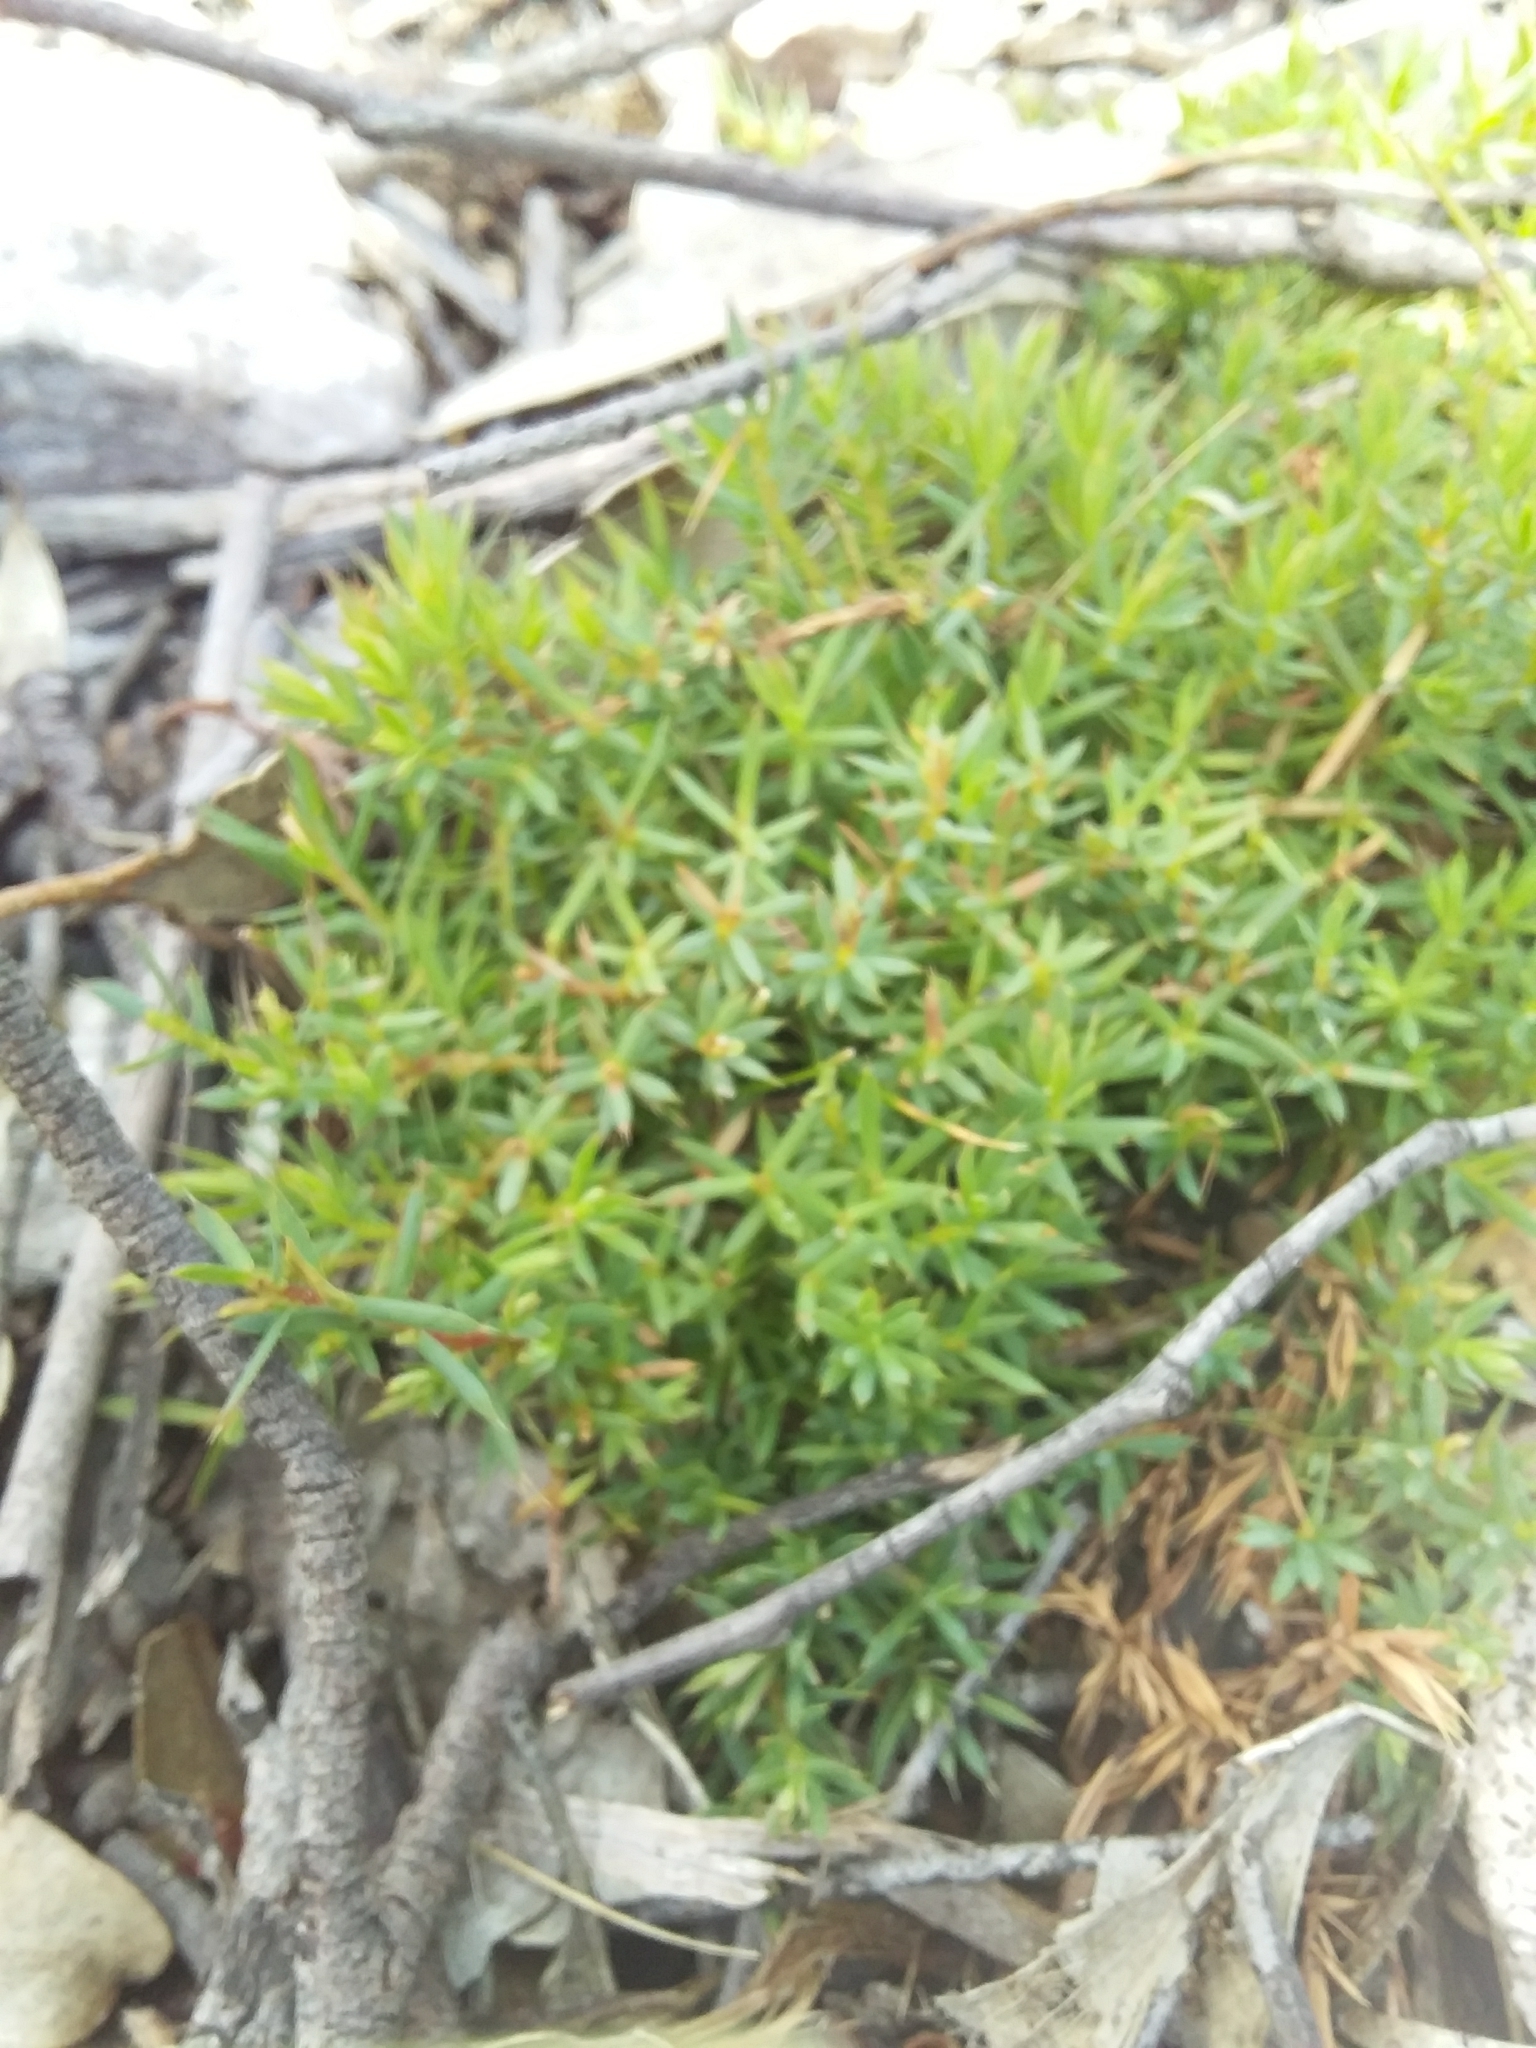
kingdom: Plantae
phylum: Tracheophyta
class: Magnoliopsida
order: Ericales
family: Ericaceae
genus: Styphelia
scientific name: Styphelia humifusa
